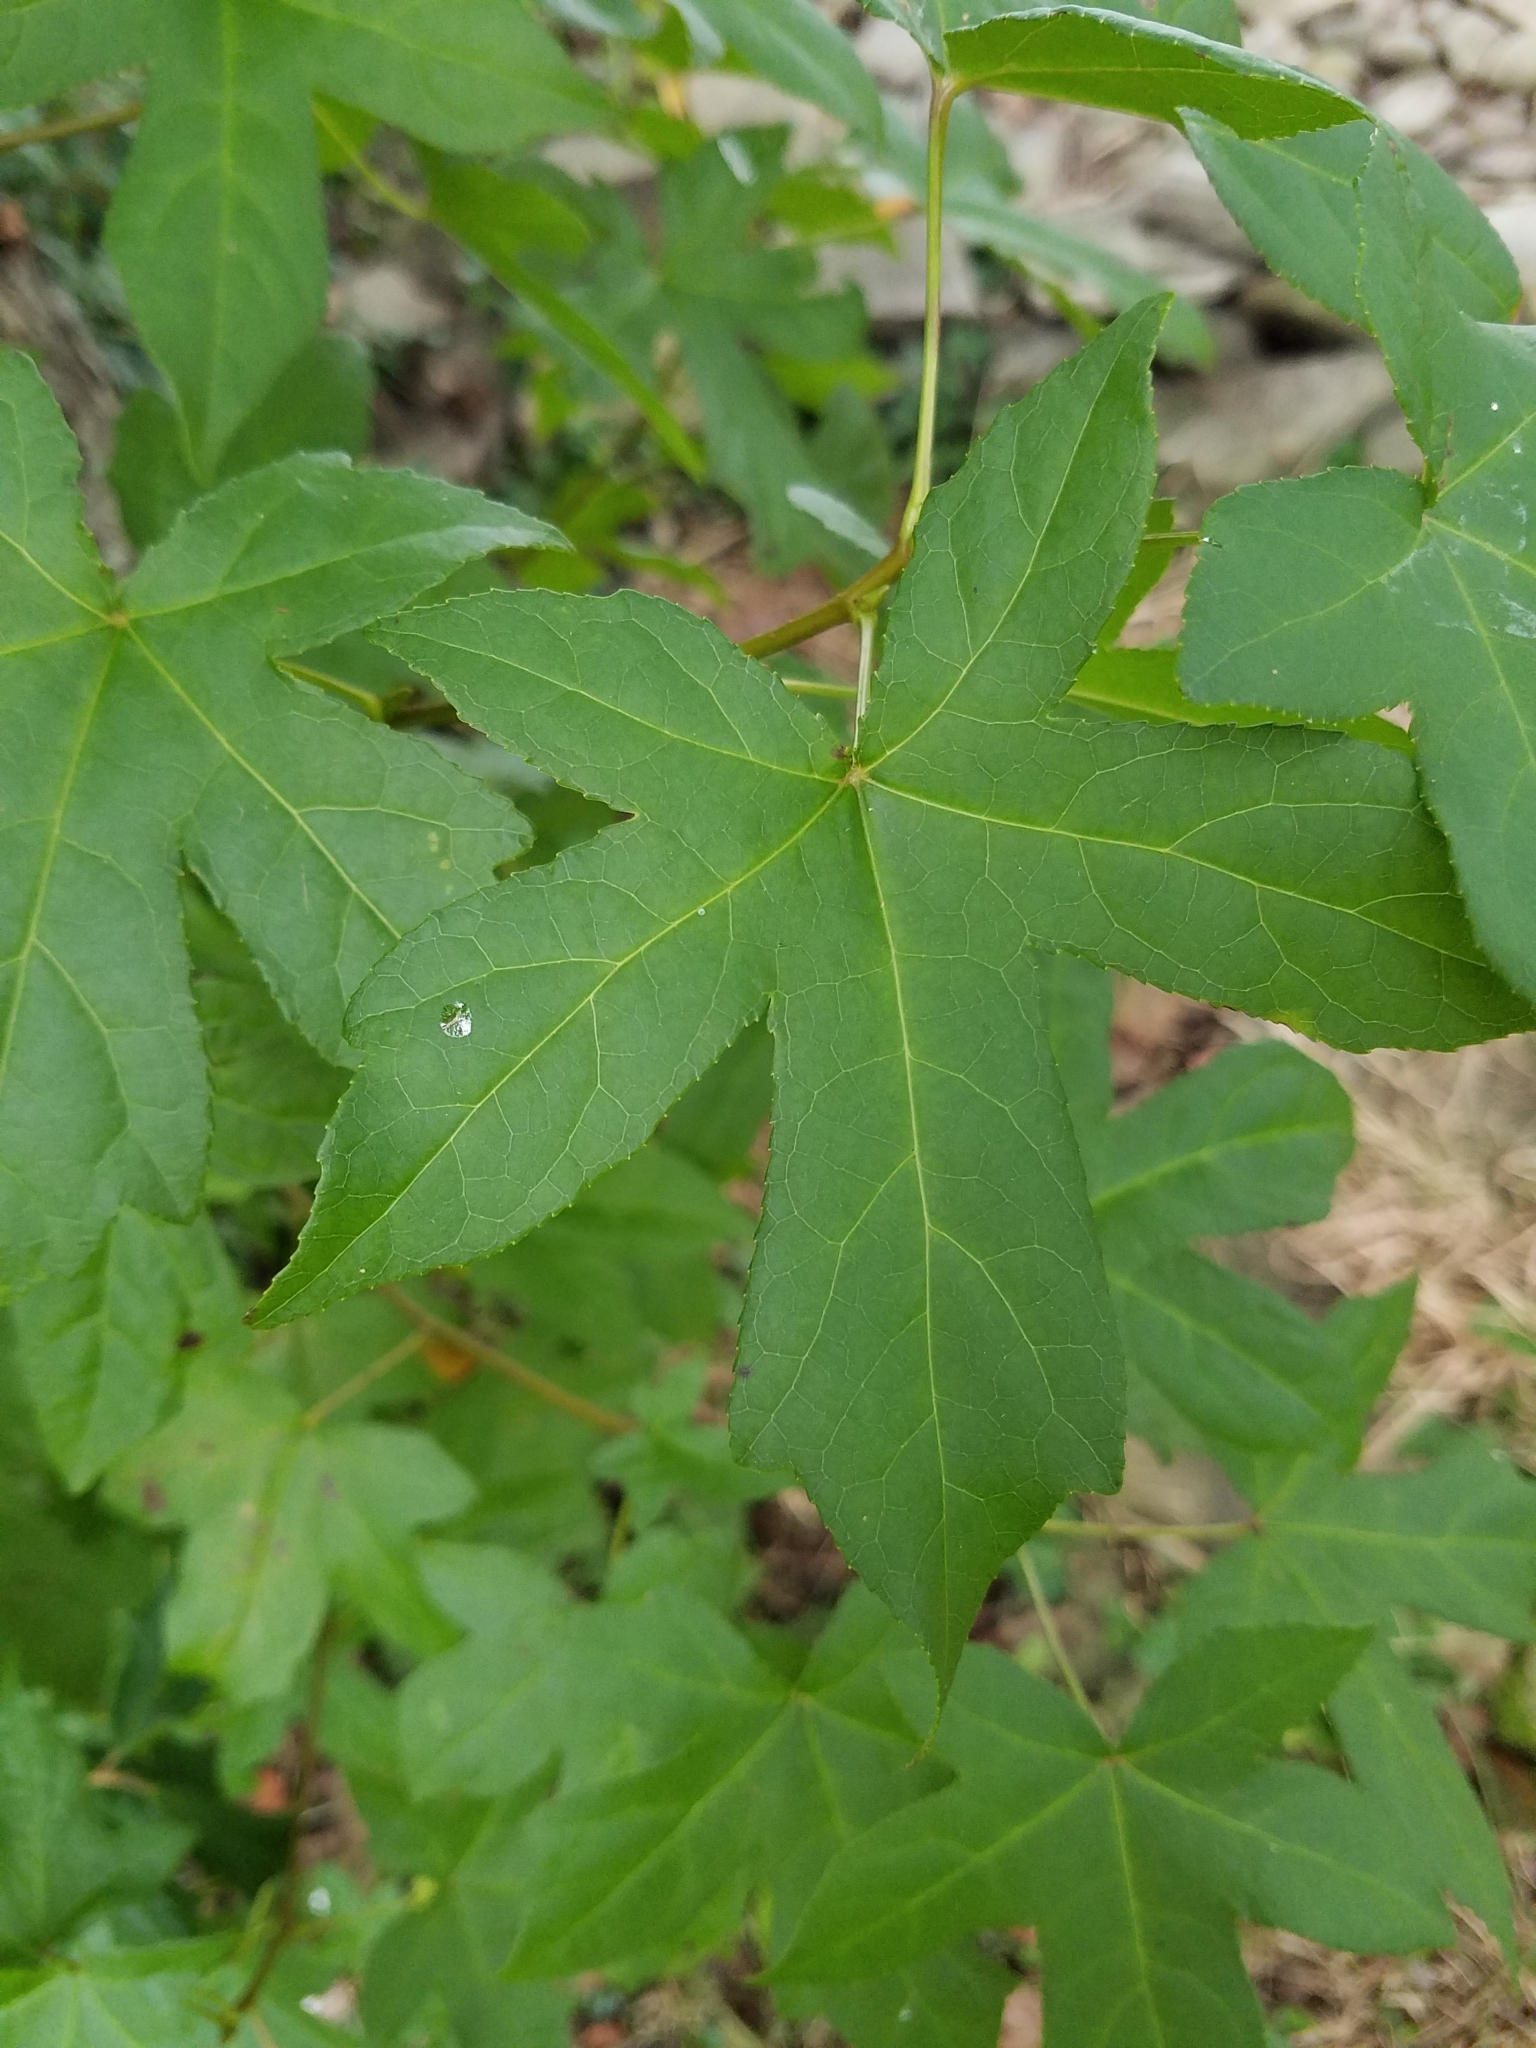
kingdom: Plantae
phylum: Tracheophyta
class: Magnoliopsida
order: Saxifragales
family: Altingiaceae
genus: Liquidambar
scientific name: Liquidambar styraciflua
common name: Sweet gum
